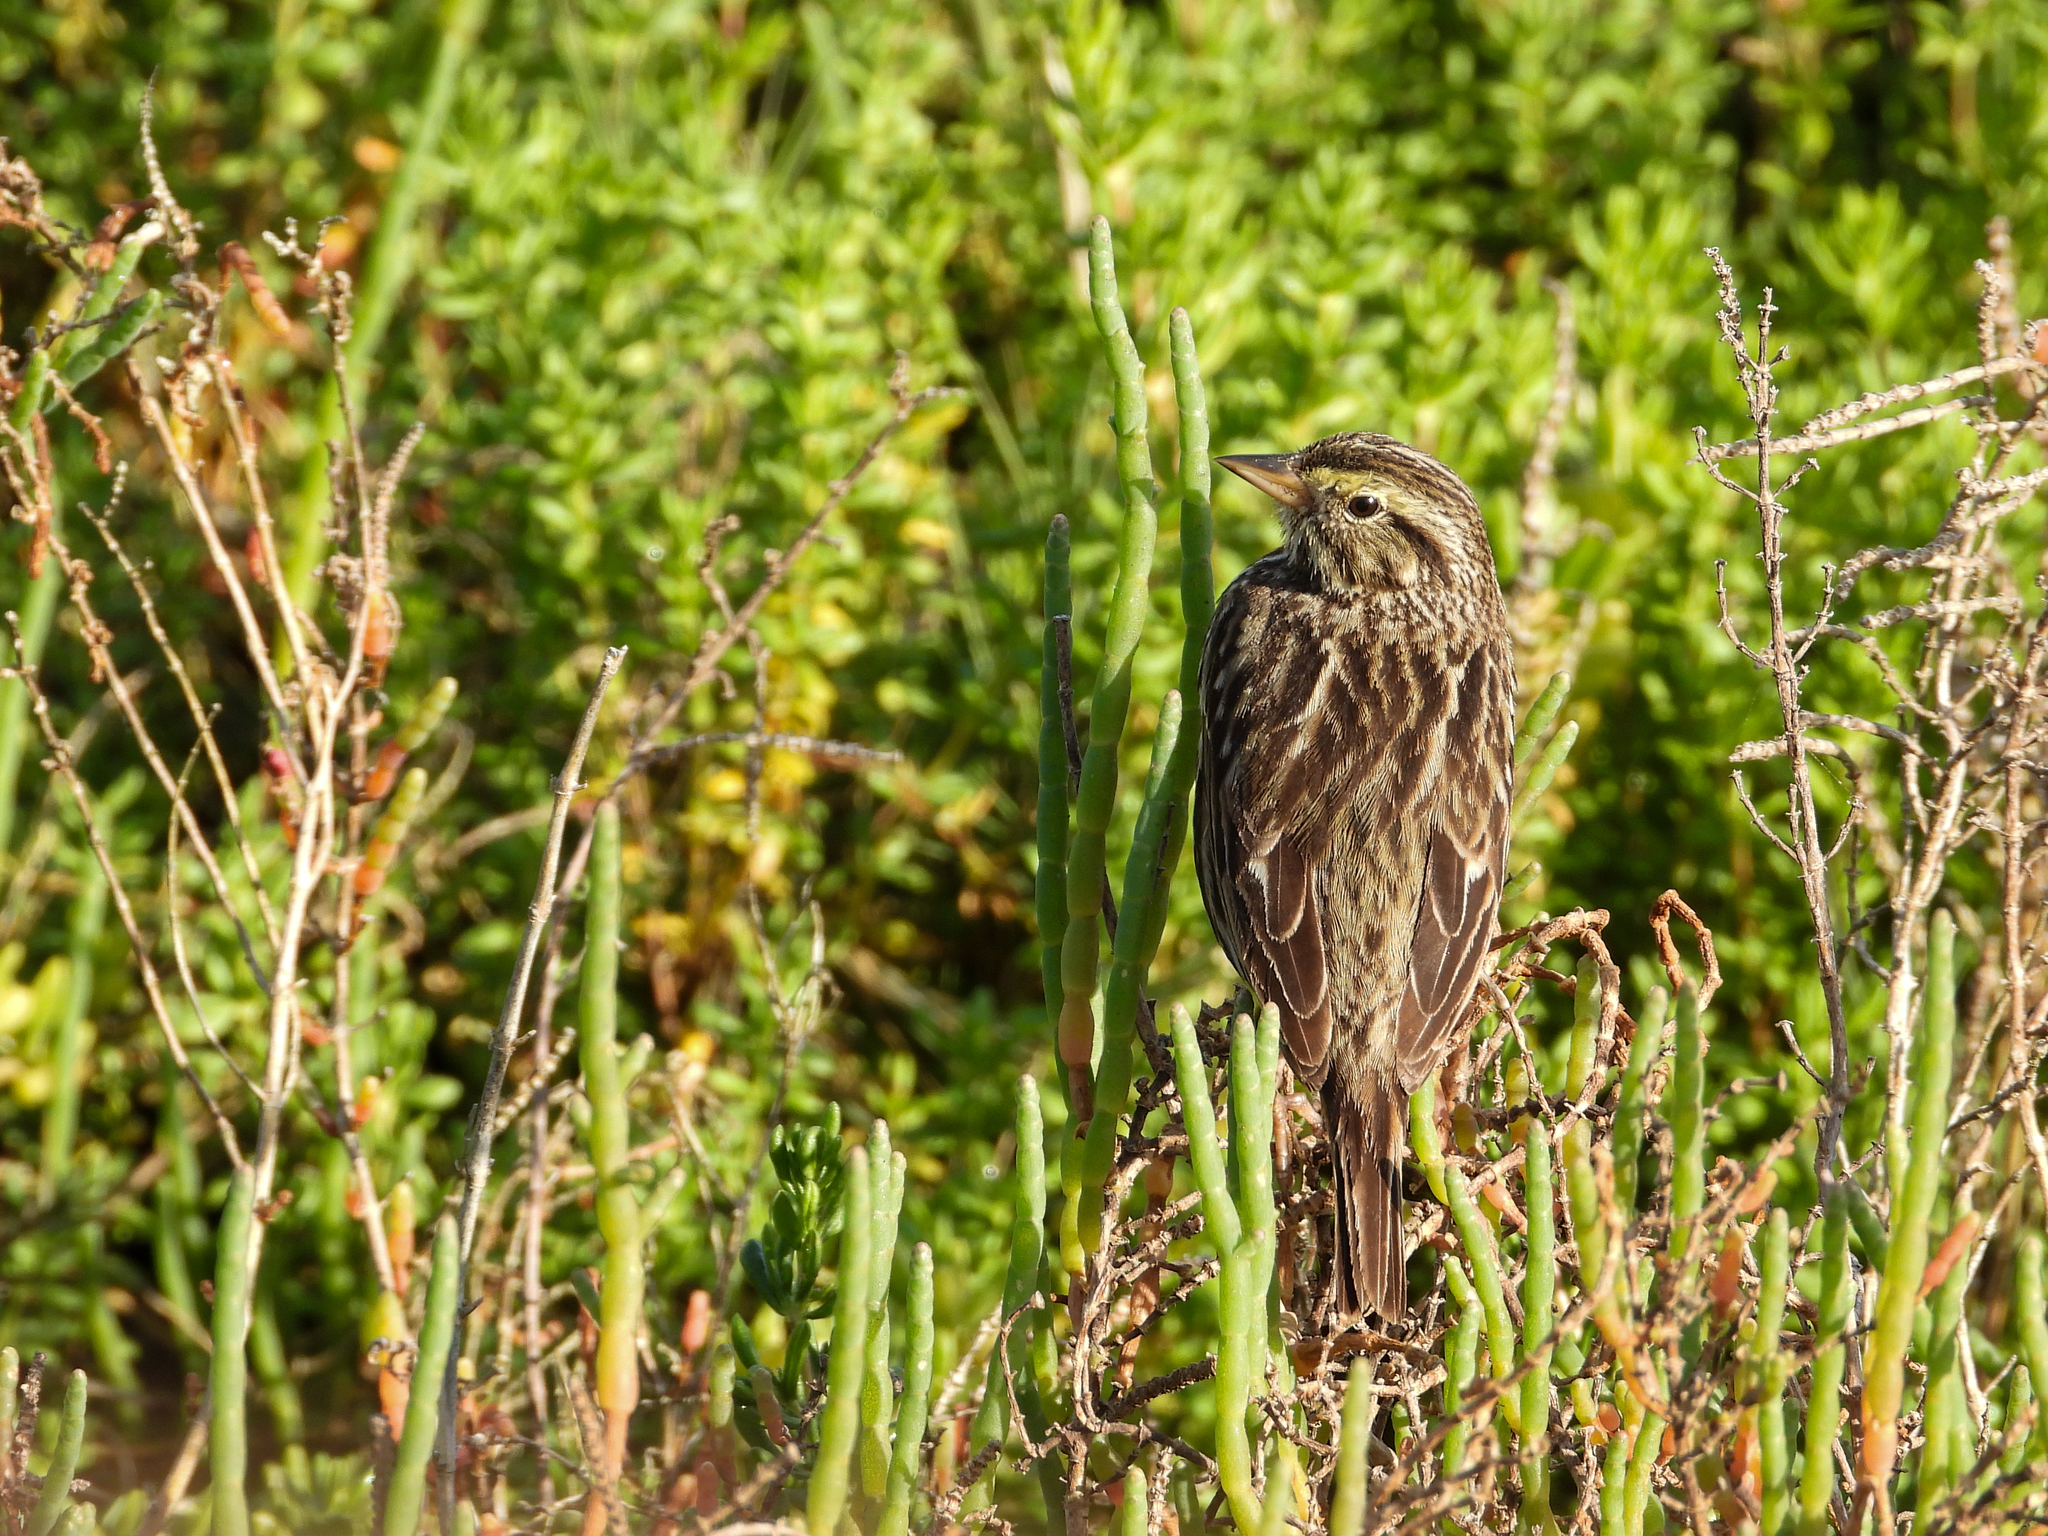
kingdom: Animalia
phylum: Chordata
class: Aves
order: Passeriformes
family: Passerellidae
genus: Passerculus
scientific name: Passerculus sandwichensis
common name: Savannah sparrow
